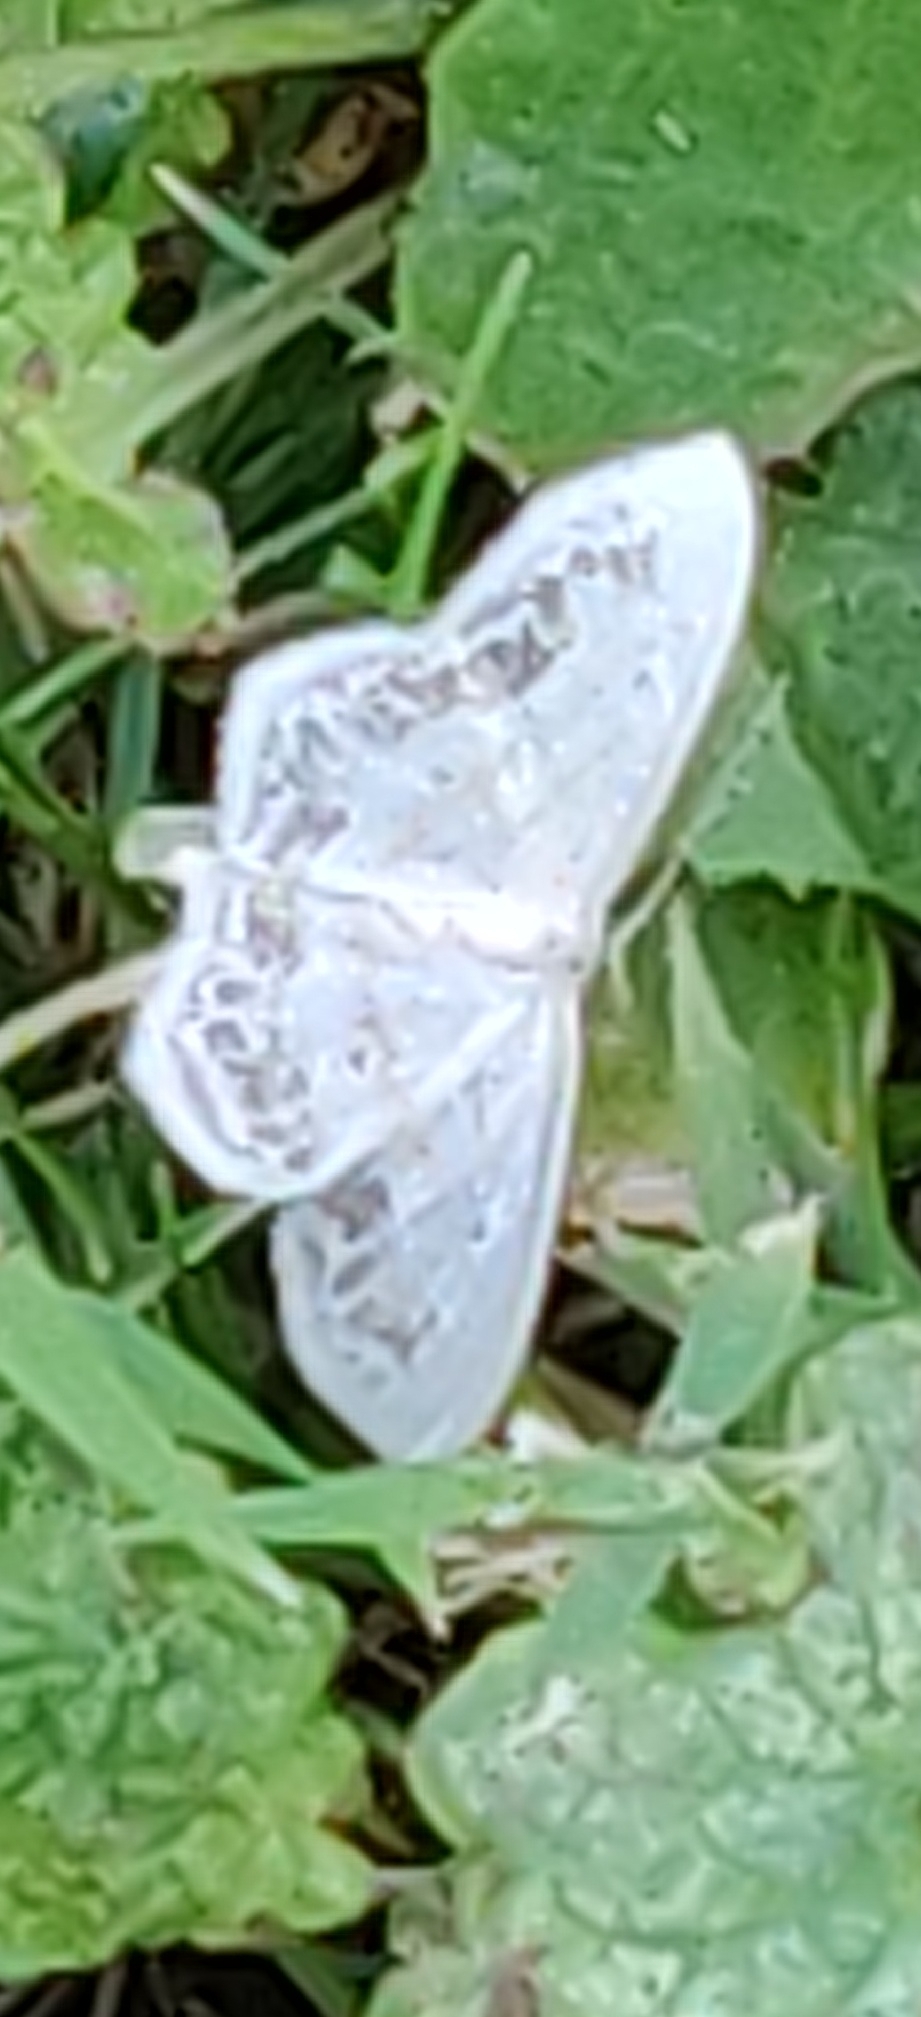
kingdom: Animalia
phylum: Arthropoda
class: Insecta
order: Lepidoptera
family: Geometridae
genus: Scopula
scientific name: Scopula limboundata
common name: Large lace border
